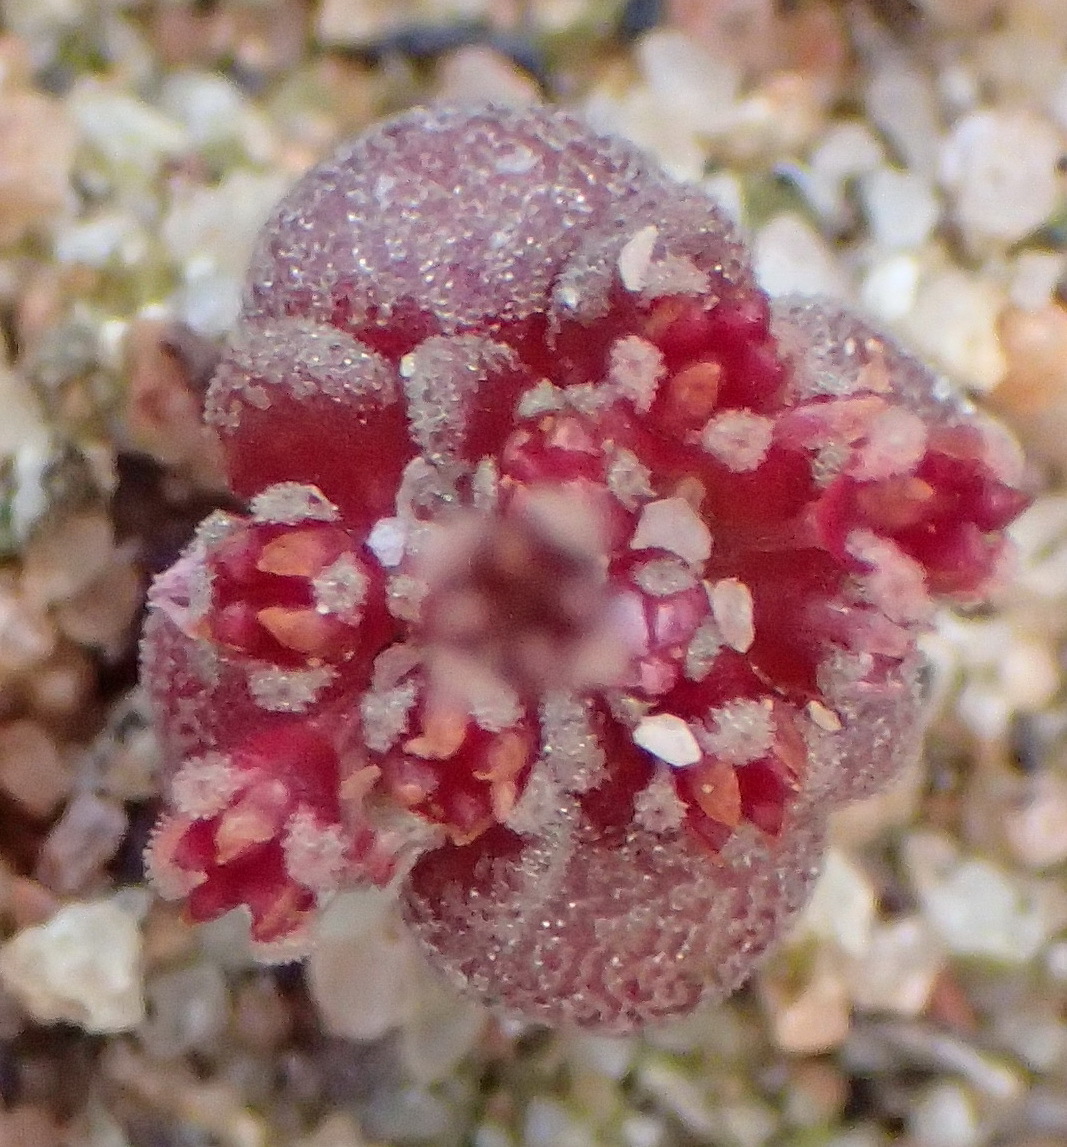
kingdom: Plantae
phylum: Tracheophyta
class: Magnoliopsida
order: Saxifragales
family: Crassulaceae
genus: Crassula
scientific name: Crassula umbellata
